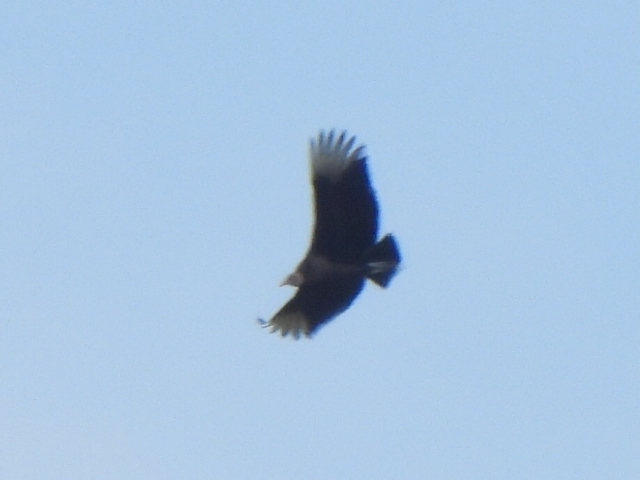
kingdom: Animalia
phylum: Chordata
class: Aves
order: Accipitriformes
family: Cathartidae
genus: Coragyps
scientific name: Coragyps atratus
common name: Black vulture
